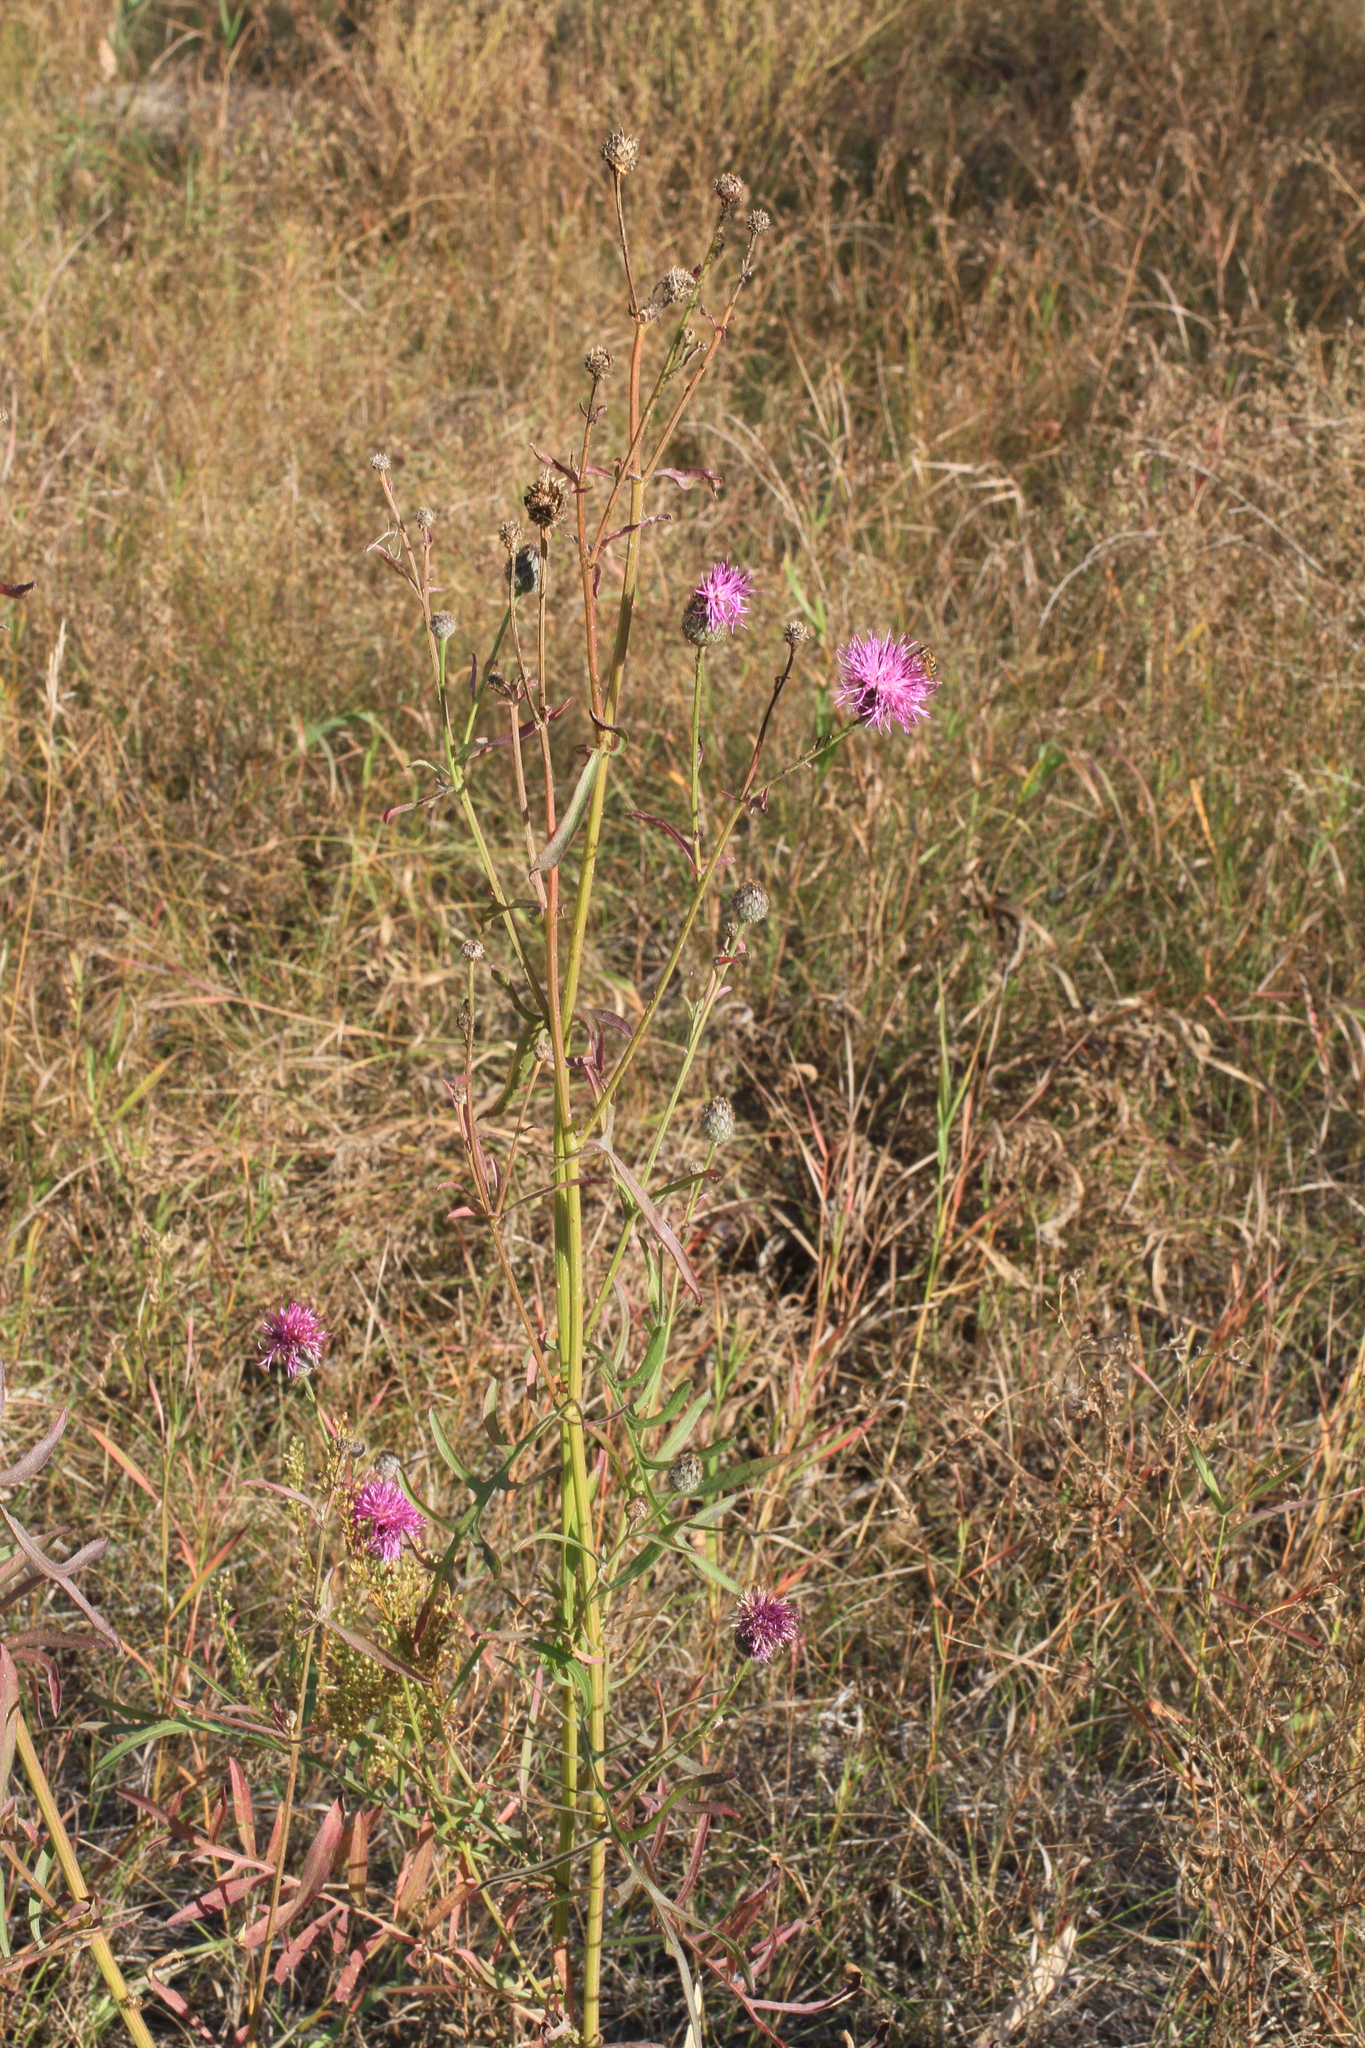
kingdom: Plantae
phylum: Tracheophyta
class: Magnoliopsida
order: Asterales
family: Asteraceae
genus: Centaurea
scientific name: Centaurea scabiosa
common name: Greater knapweed
